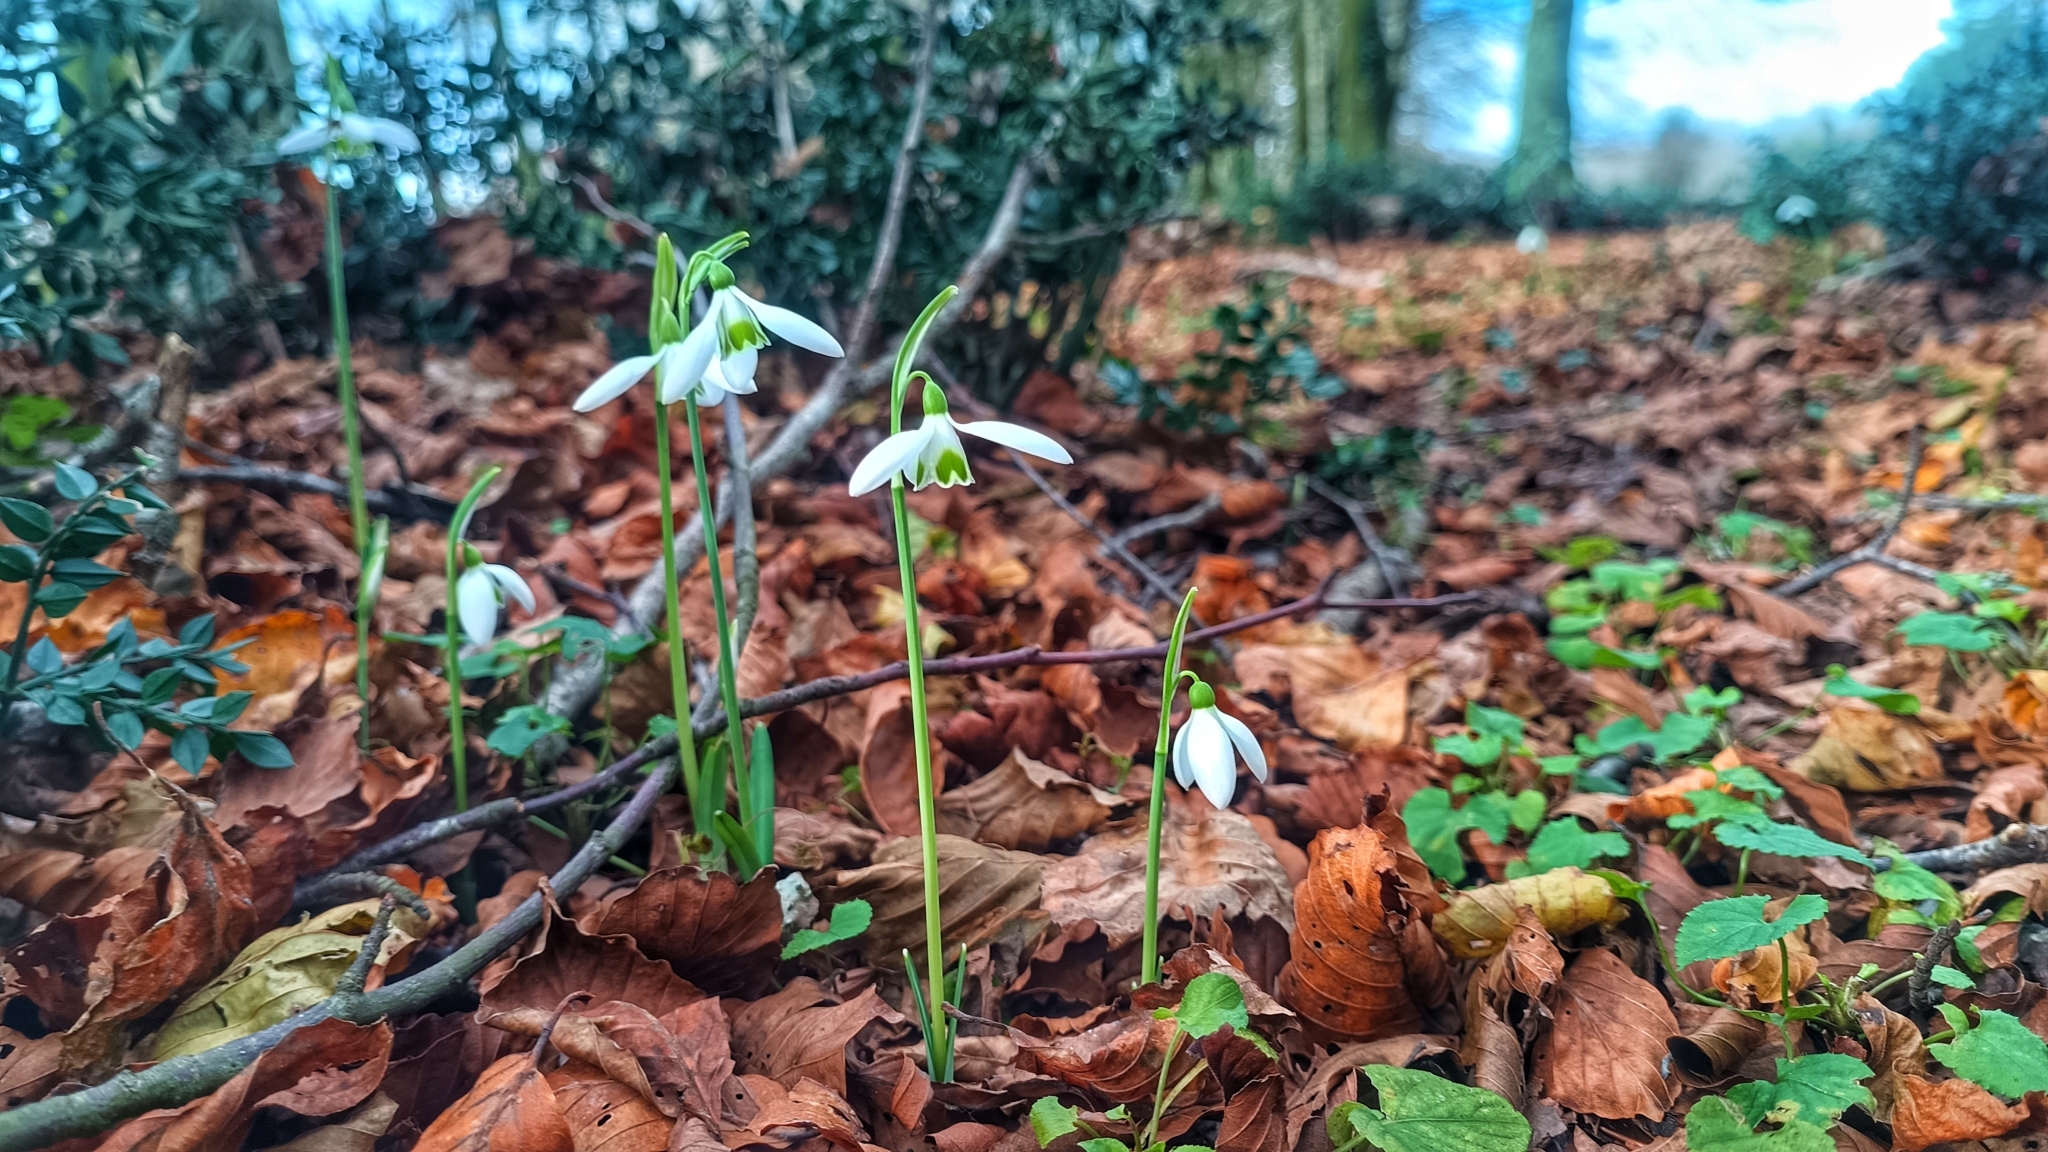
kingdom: Plantae
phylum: Tracheophyta
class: Liliopsida
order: Asparagales
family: Amaryllidaceae
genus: Galanthus
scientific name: Galanthus reginae-olgae
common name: Queen olga's snowdrop
